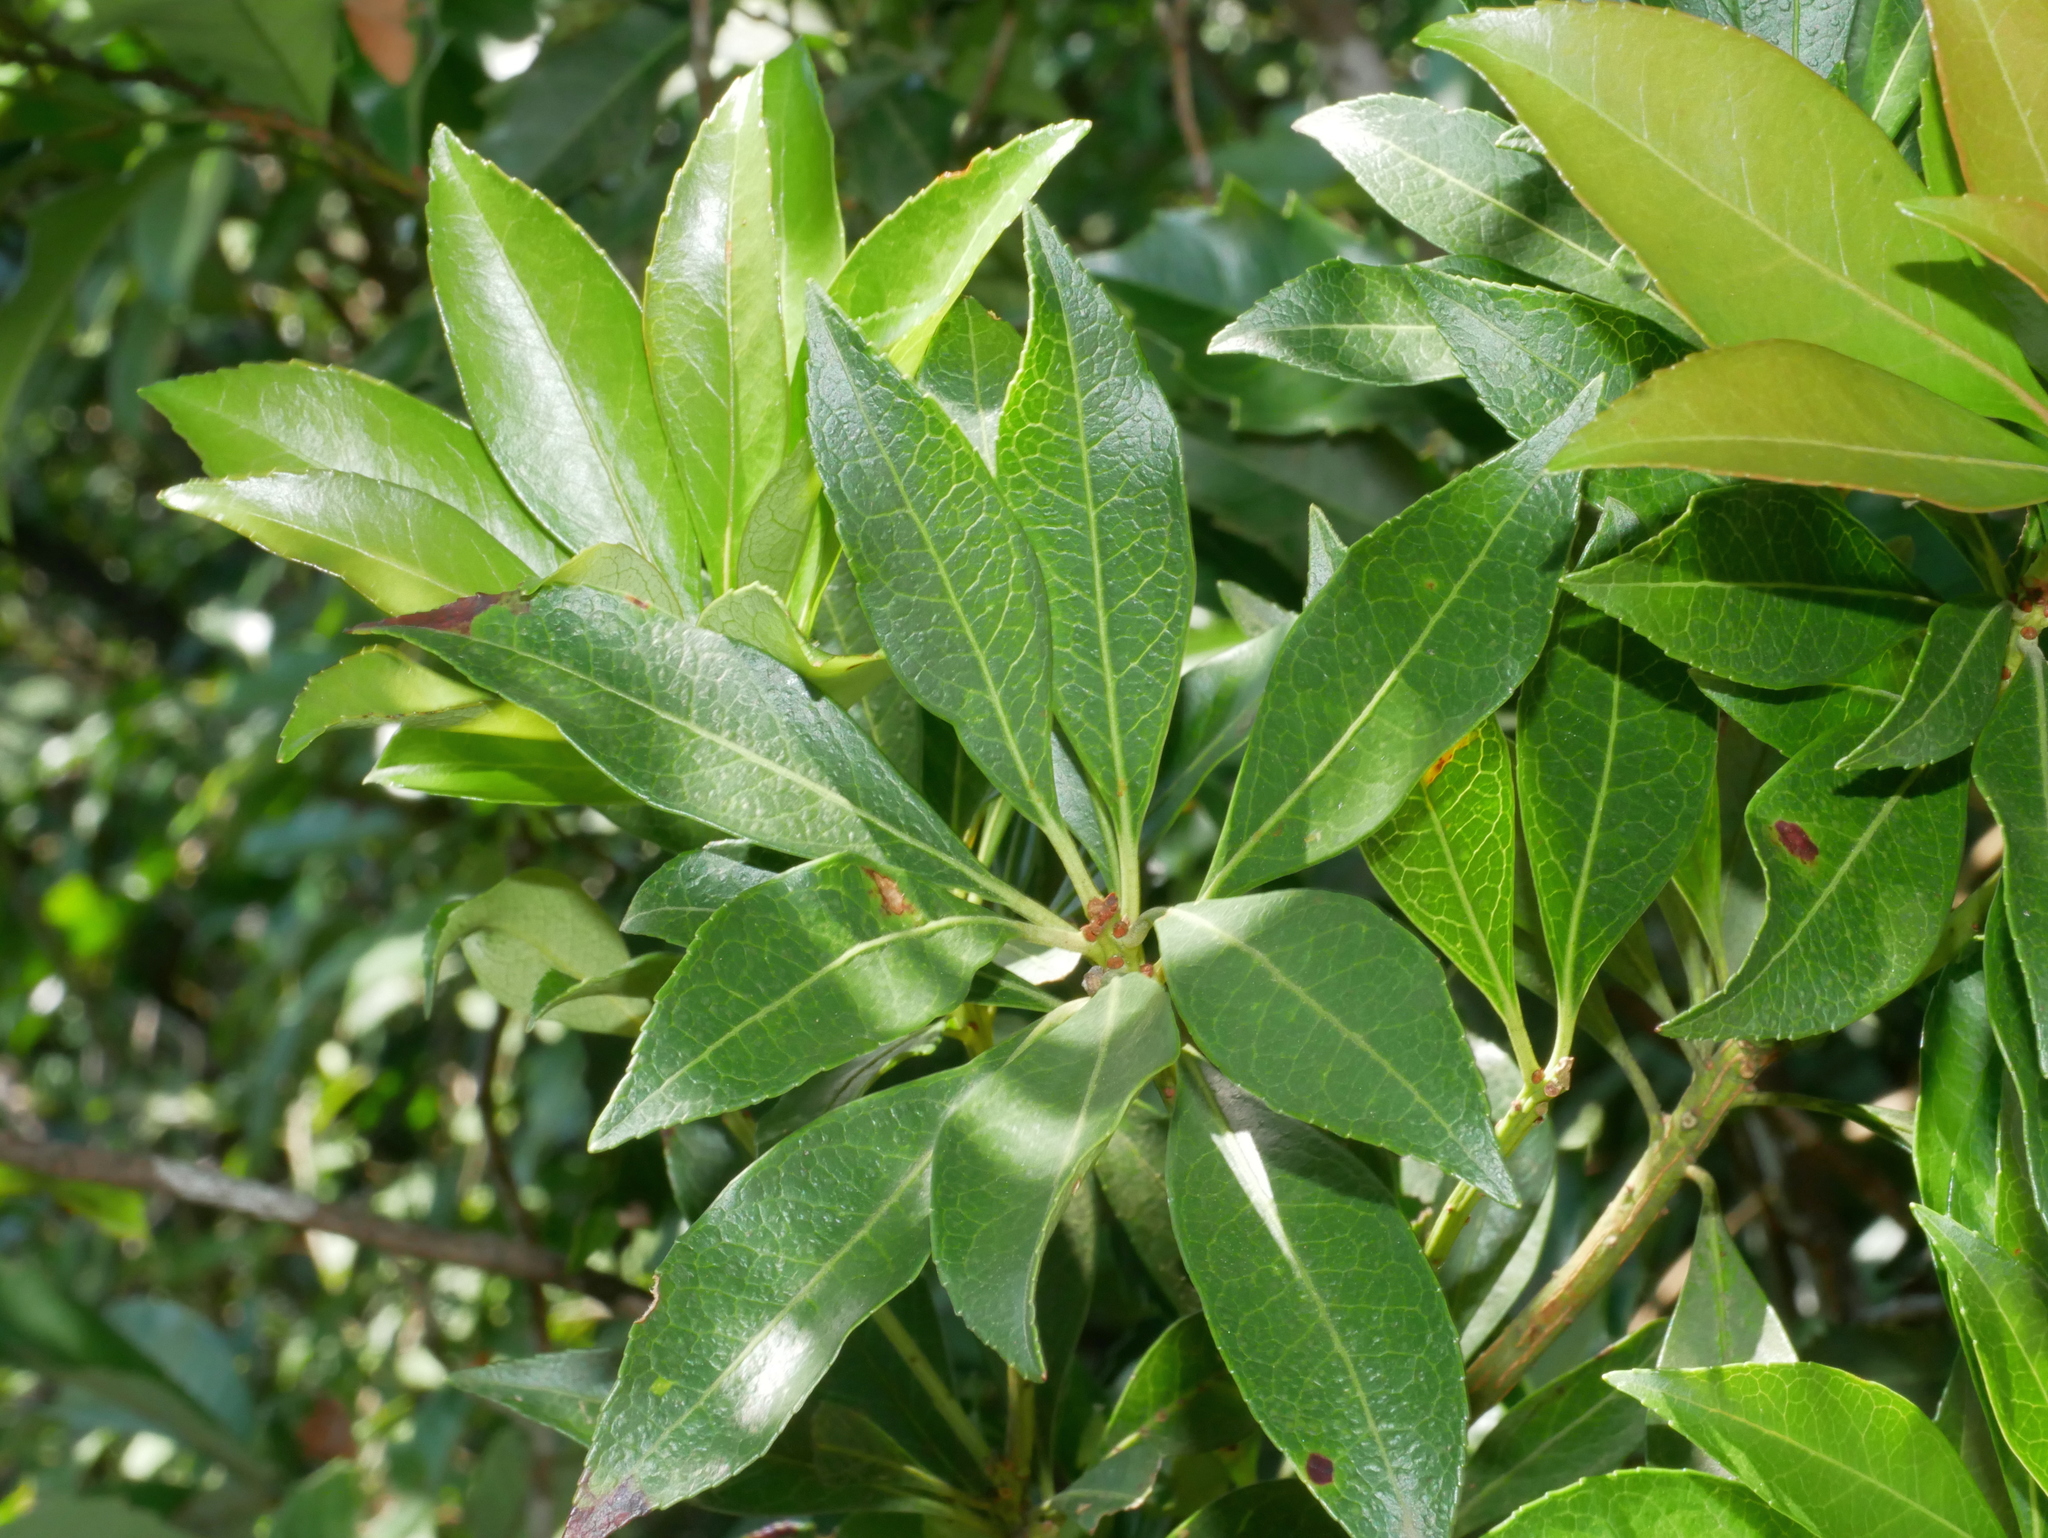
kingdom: Plantae
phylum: Tracheophyta
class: Magnoliopsida
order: Ericales
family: Ericaceae
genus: Pieris
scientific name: Pieris japonica
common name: Japanese pieris
